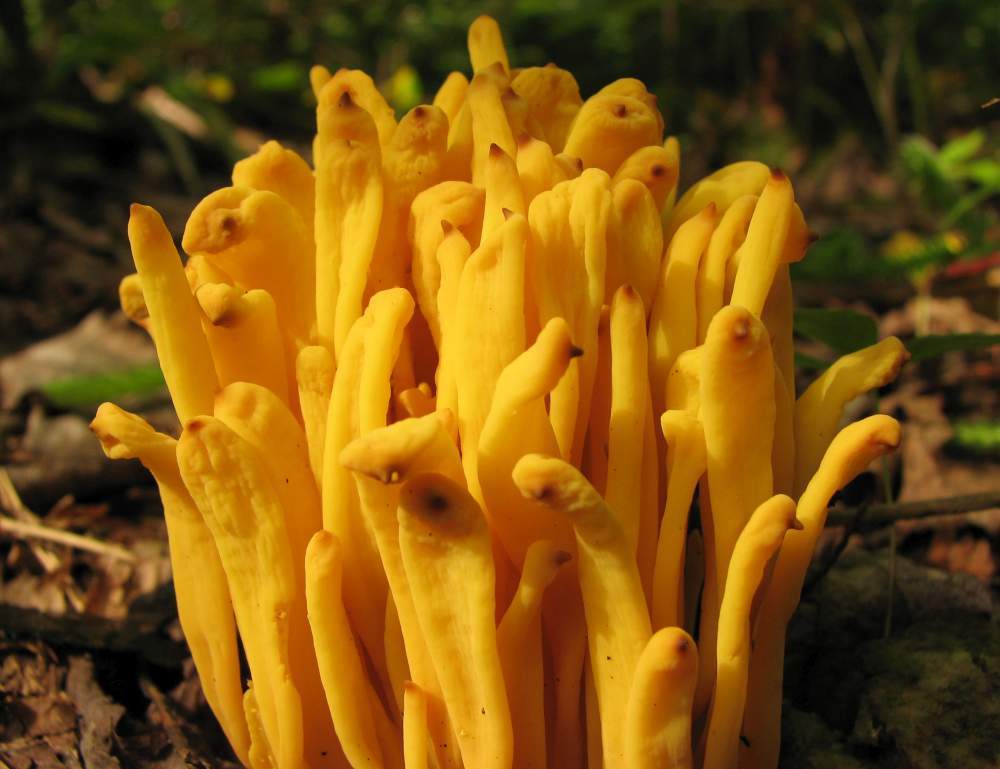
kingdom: Fungi
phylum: Basidiomycota
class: Agaricomycetes
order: Agaricales
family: Clavariaceae
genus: Clavulinopsis
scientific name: Clavulinopsis fusiformis
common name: Golden spindles
